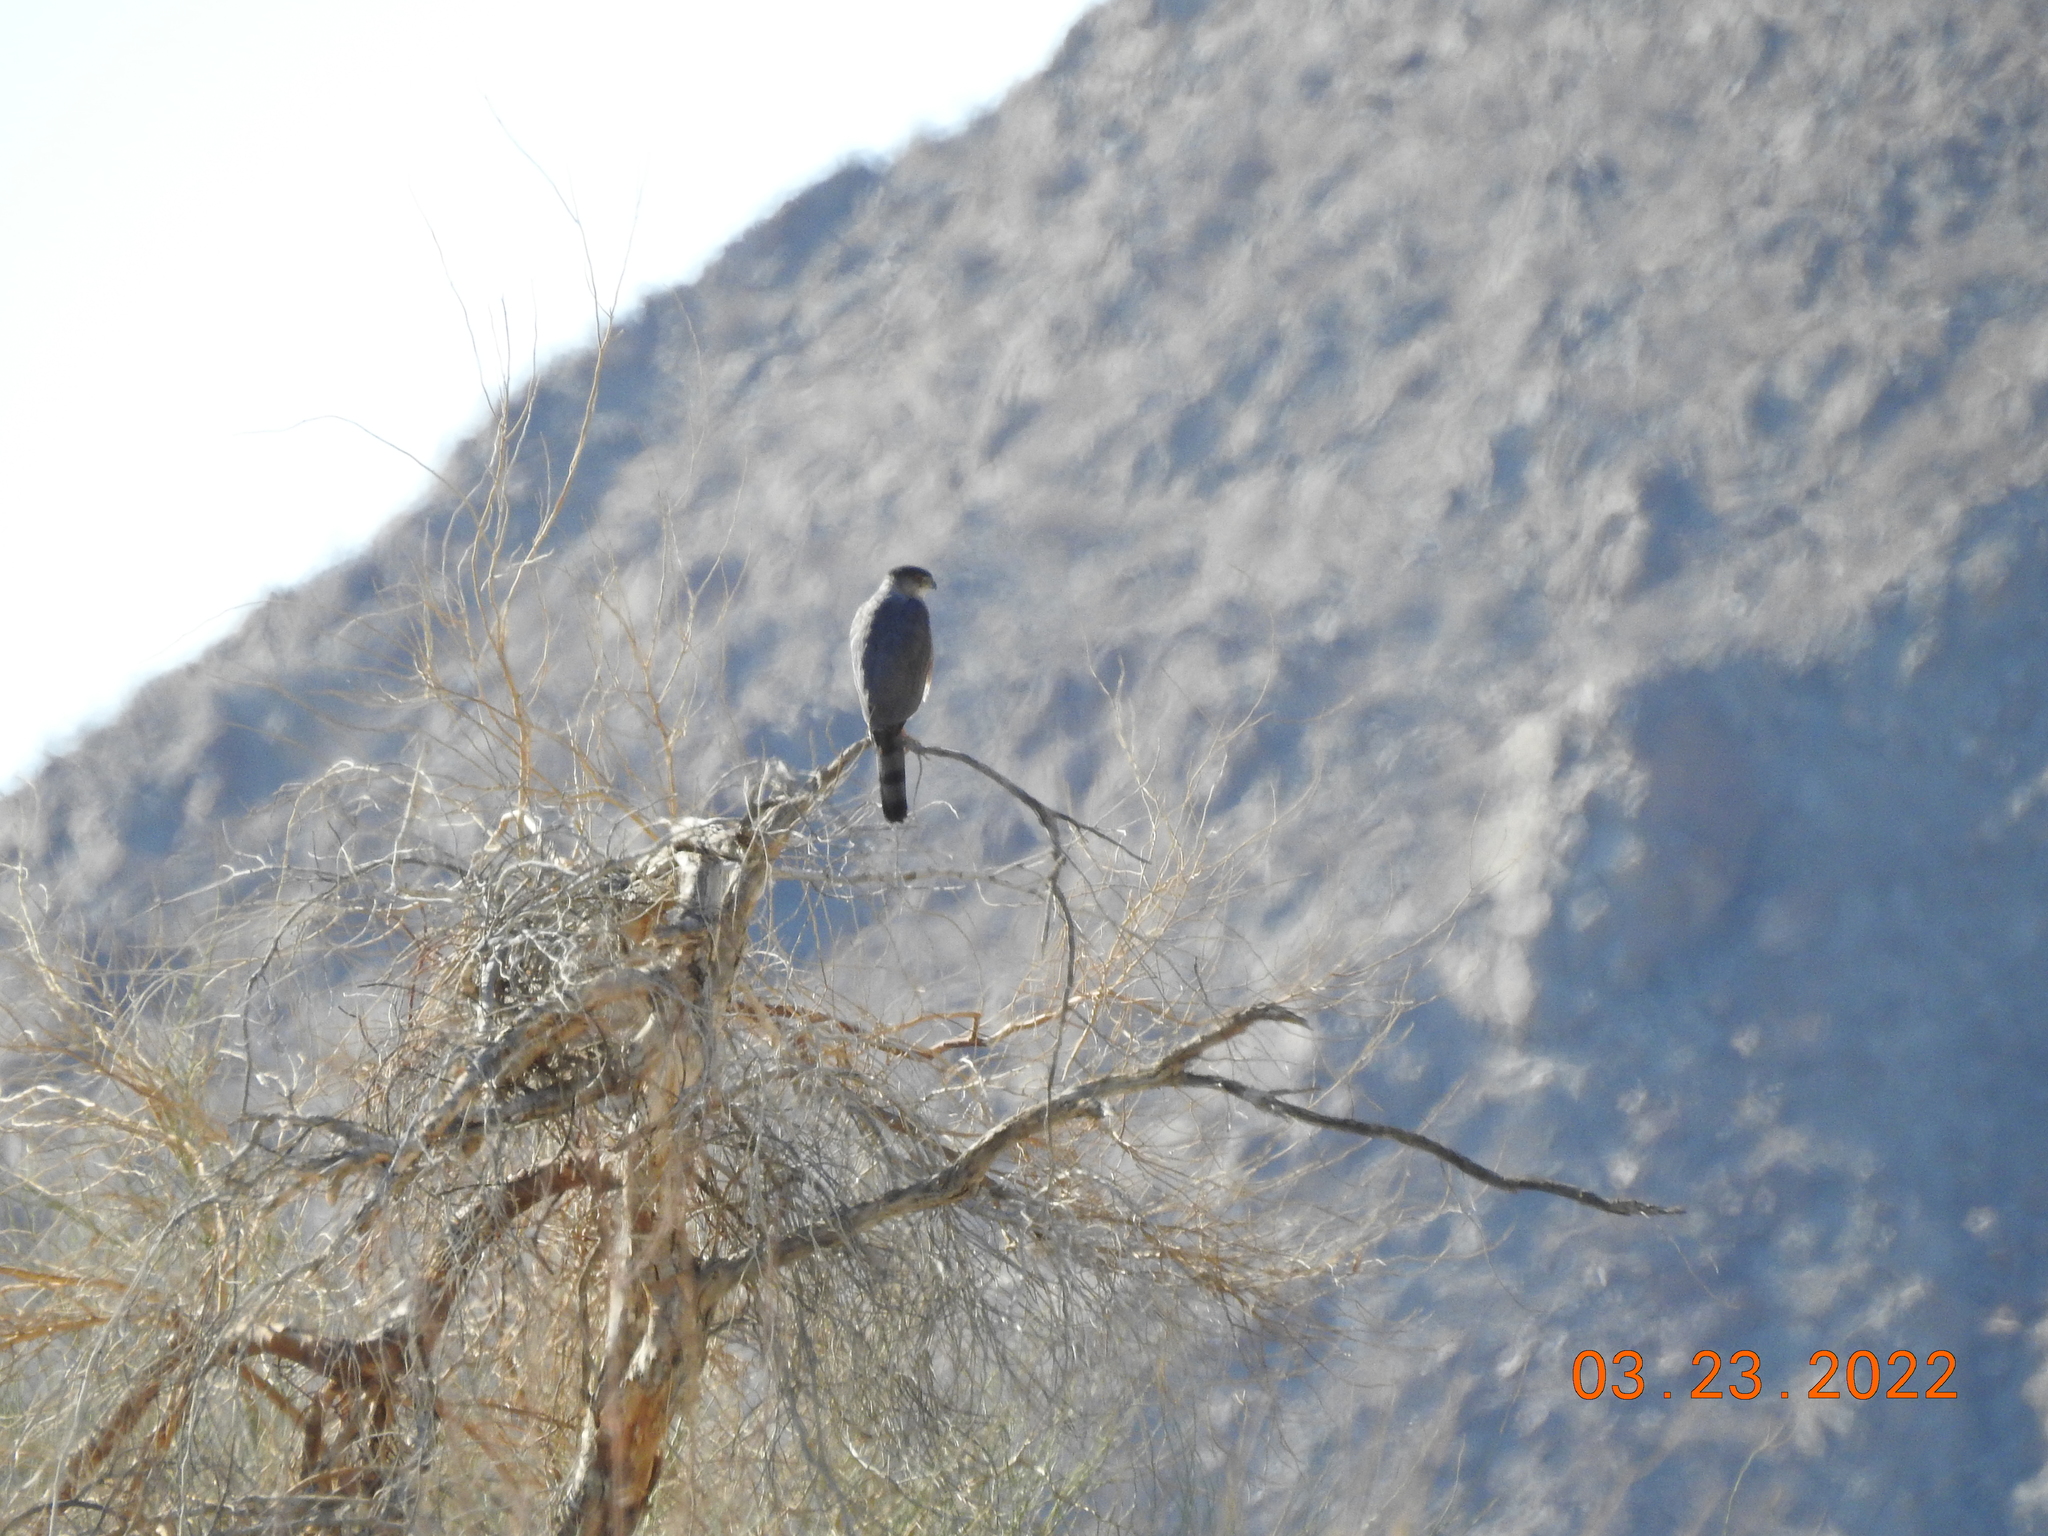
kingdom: Animalia
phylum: Chordata
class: Aves
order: Accipitriformes
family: Accipitridae
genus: Accipiter
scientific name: Accipiter cooperii
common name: Cooper's hawk
